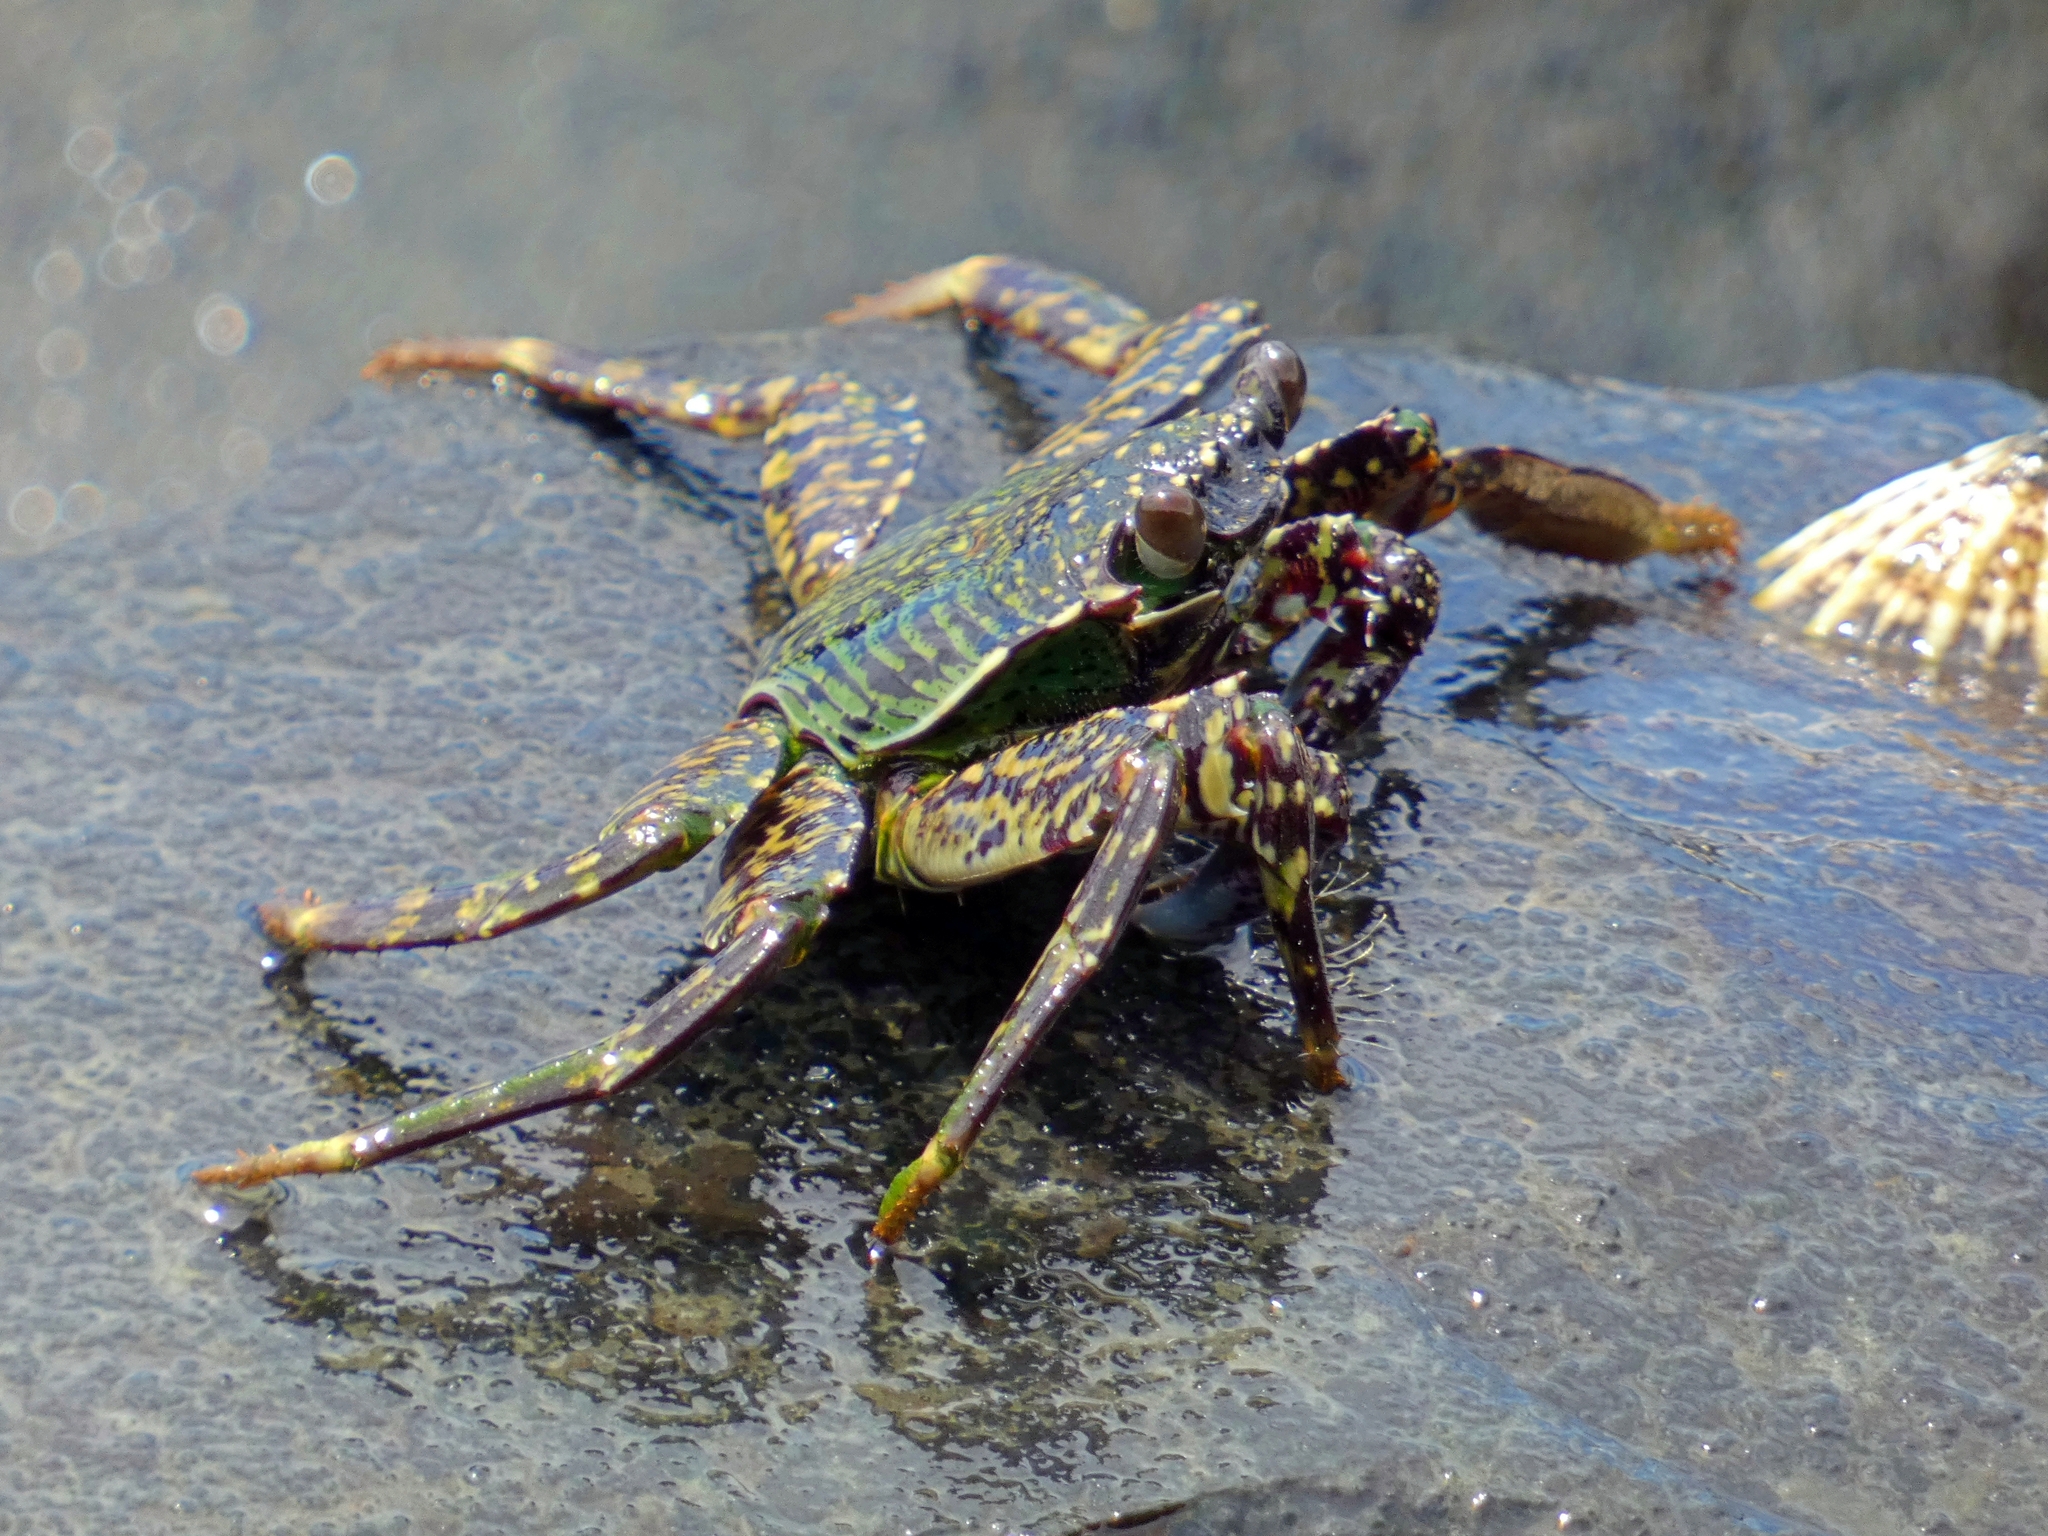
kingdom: Animalia
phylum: Arthropoda
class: Malacostraca
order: Decapoda
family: Grapsidae
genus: Grapsus
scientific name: Grapsus albolineatus
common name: Mottled lightfoot crab
